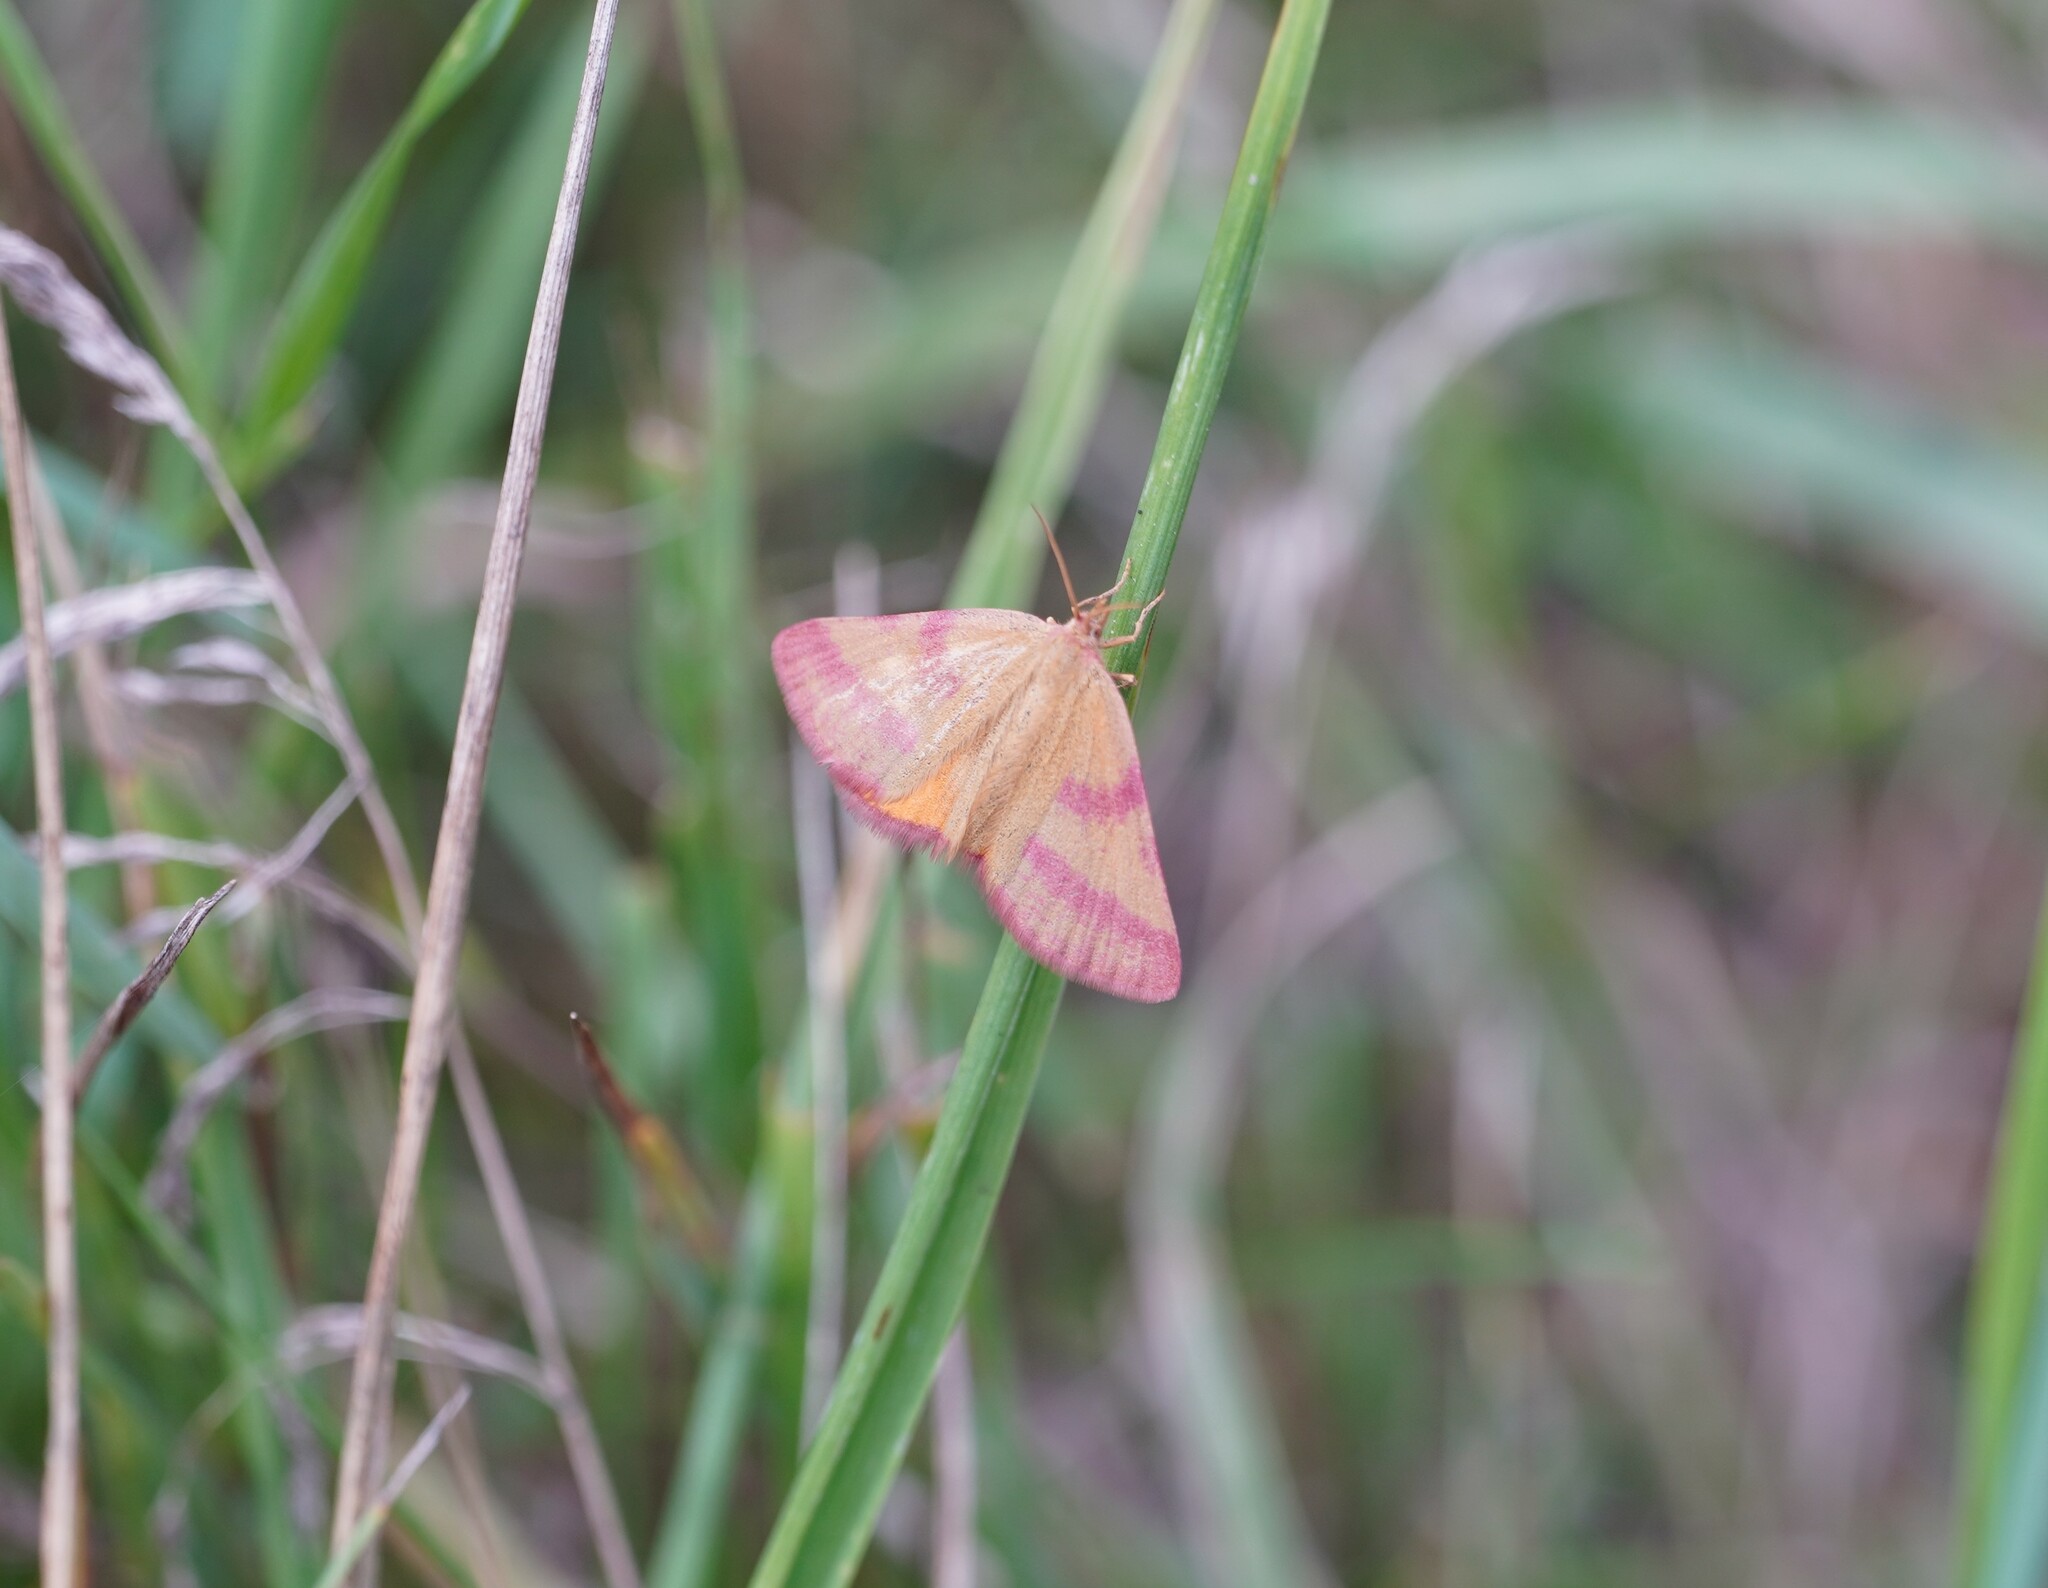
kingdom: Animalia
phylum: Arthropoda
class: Insecta
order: Lepidoptera
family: Geometridae
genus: Lythria
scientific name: Lythria purpuraria
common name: Purple-barred yellow
